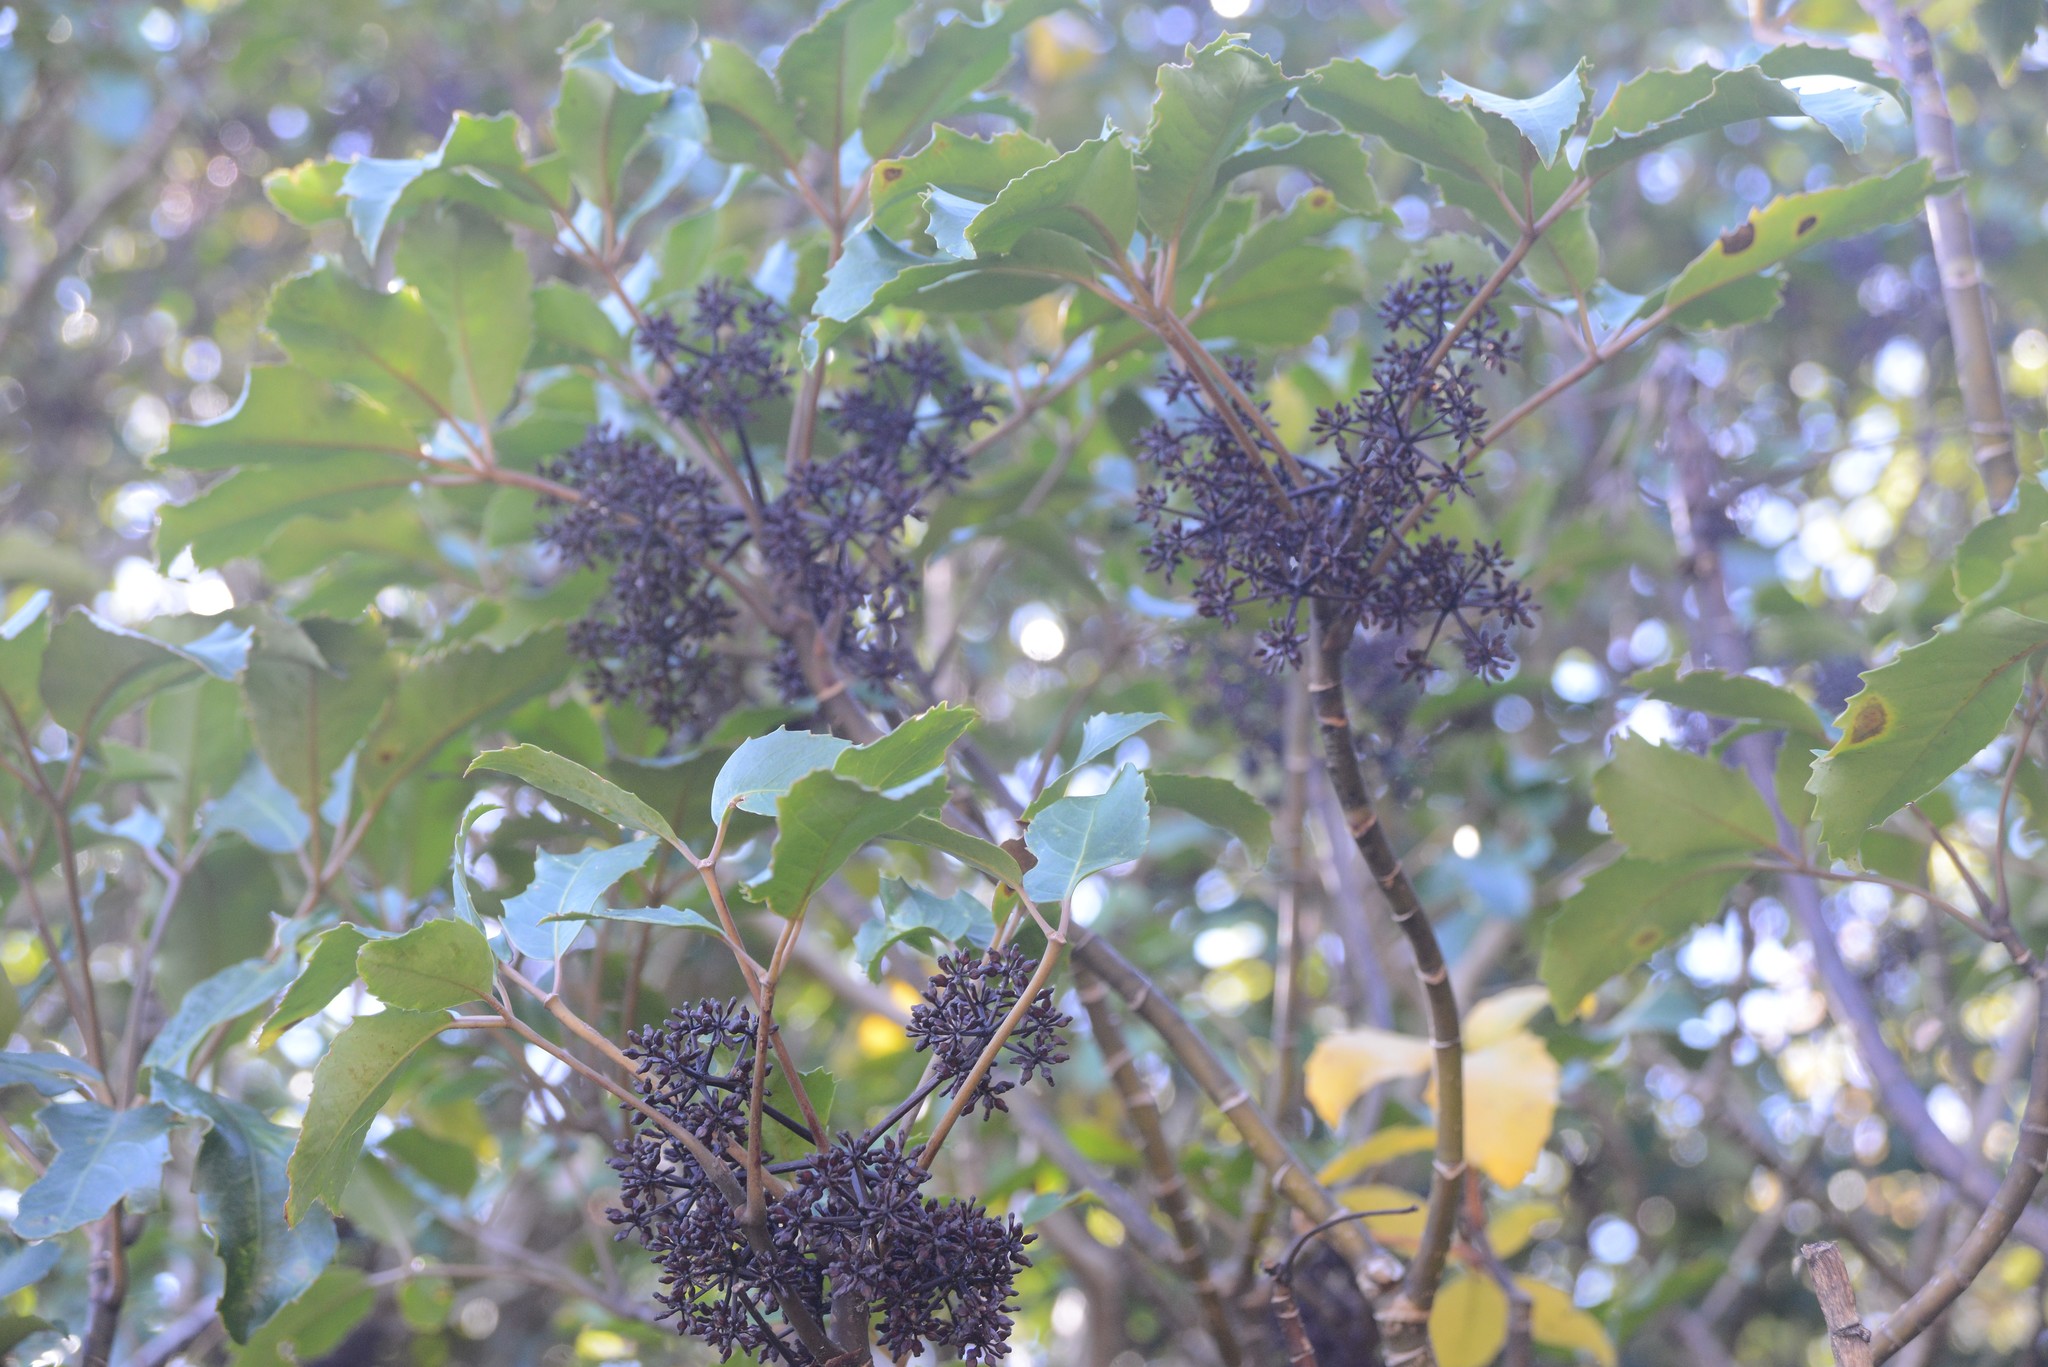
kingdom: Plantae
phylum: Tracheophyta
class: Magnoliopsida
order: Apiales
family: Araliaceae
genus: Neopanax
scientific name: Neopanax arboreus
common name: Five-fingers
